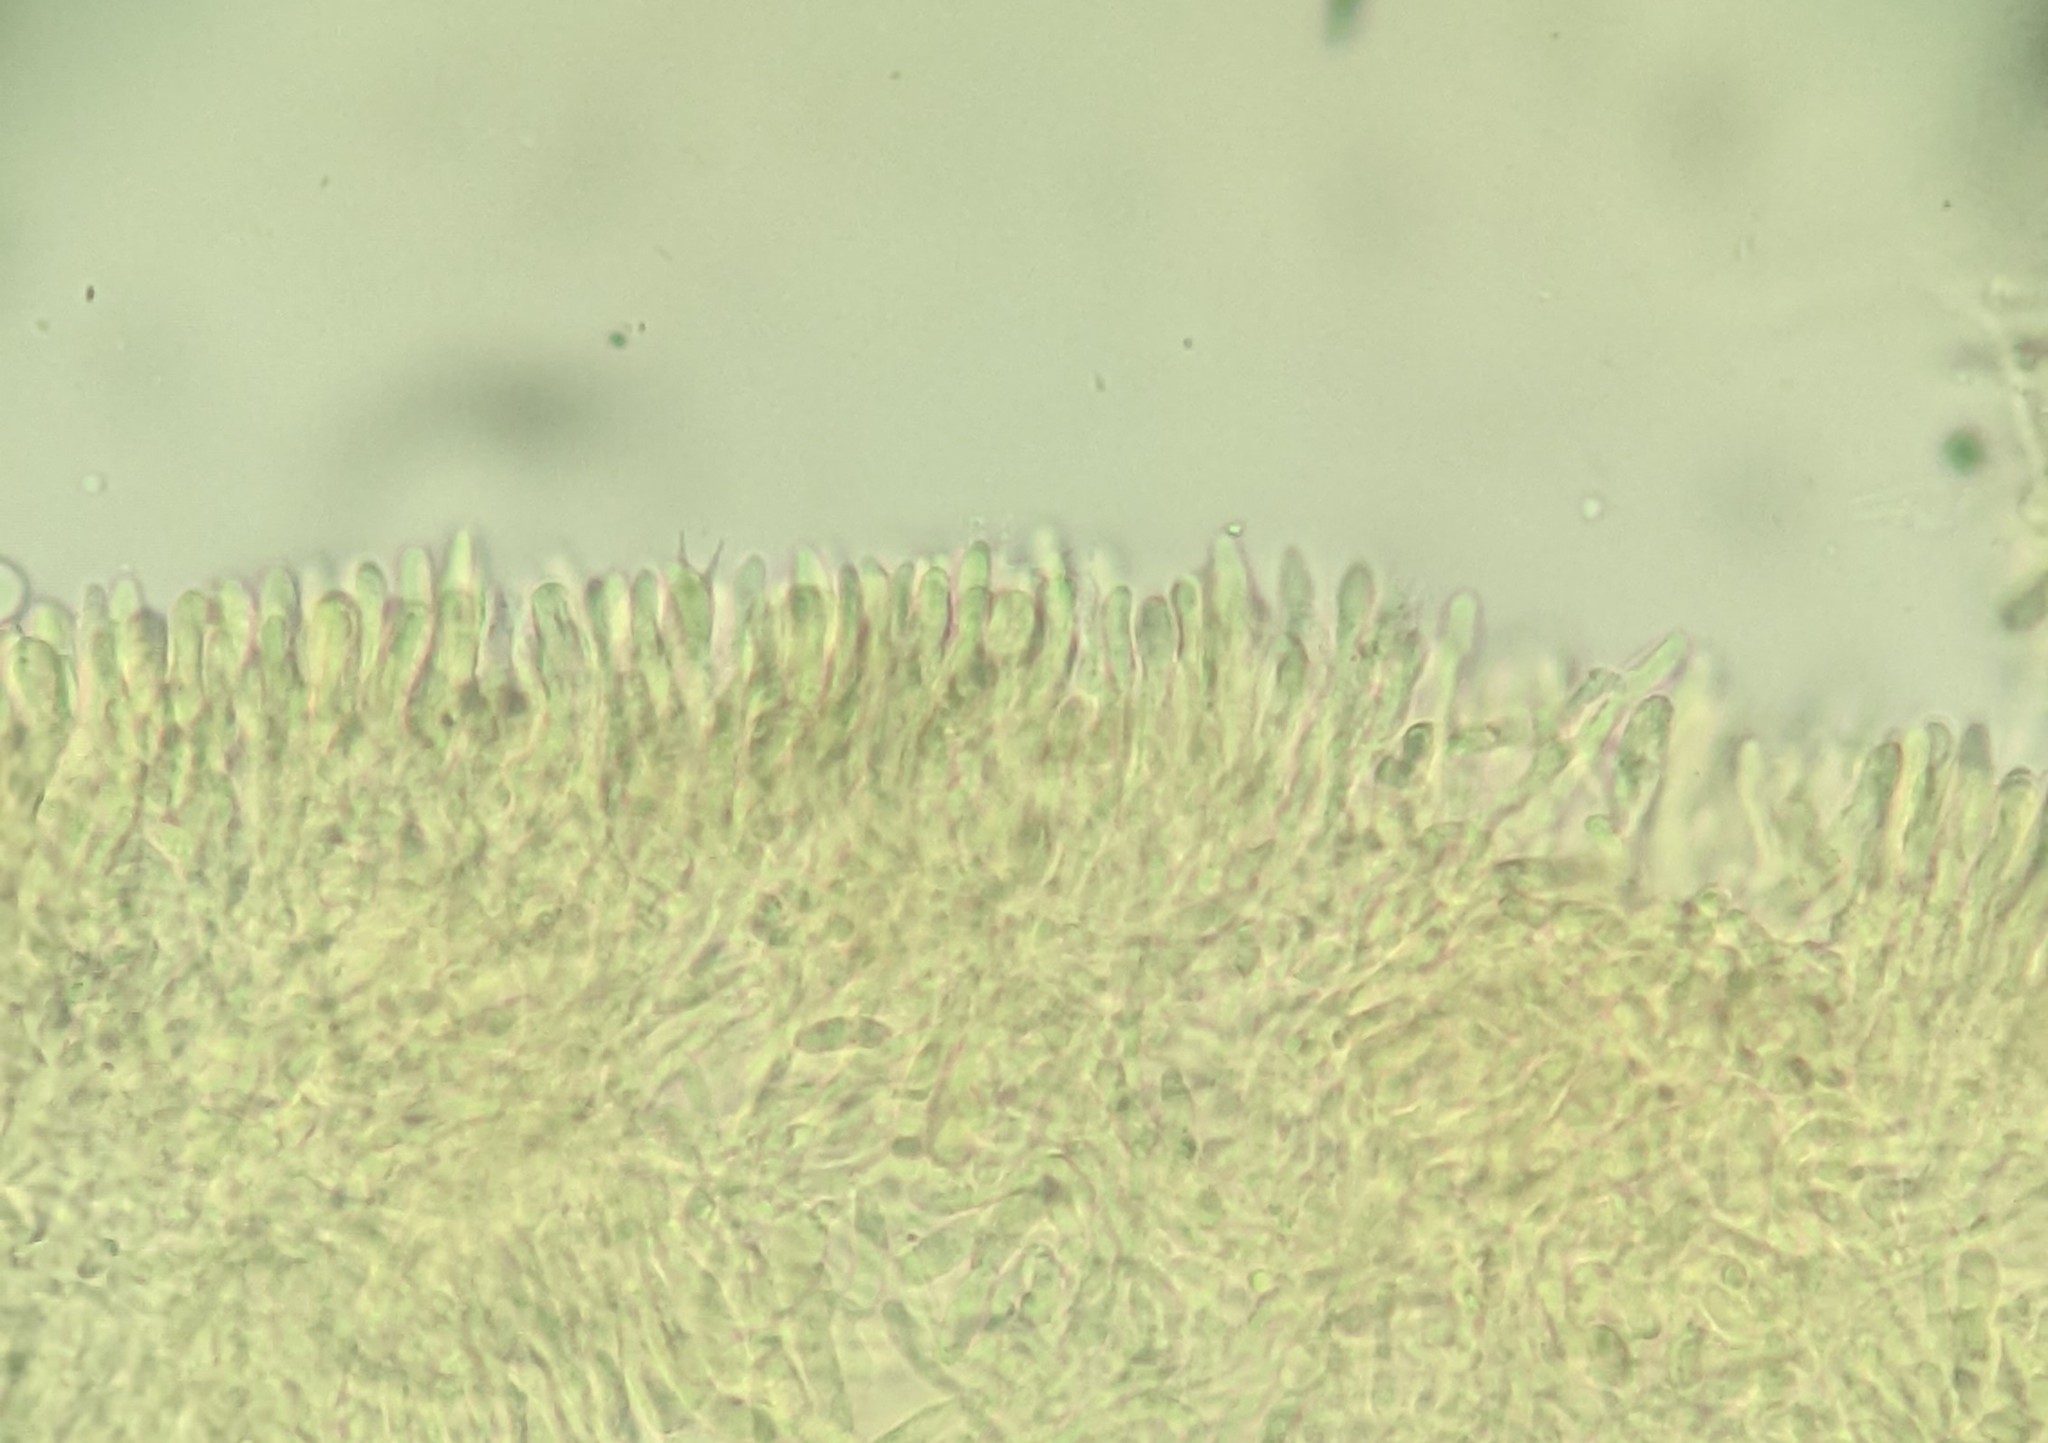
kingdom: Fungi
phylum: Basidiomycota
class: Agaricomycetes
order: Gloeophyllales
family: Gloeophyllaceae
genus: Neolentinus
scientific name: Neolentinus lepideus
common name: Scaly sawgill
